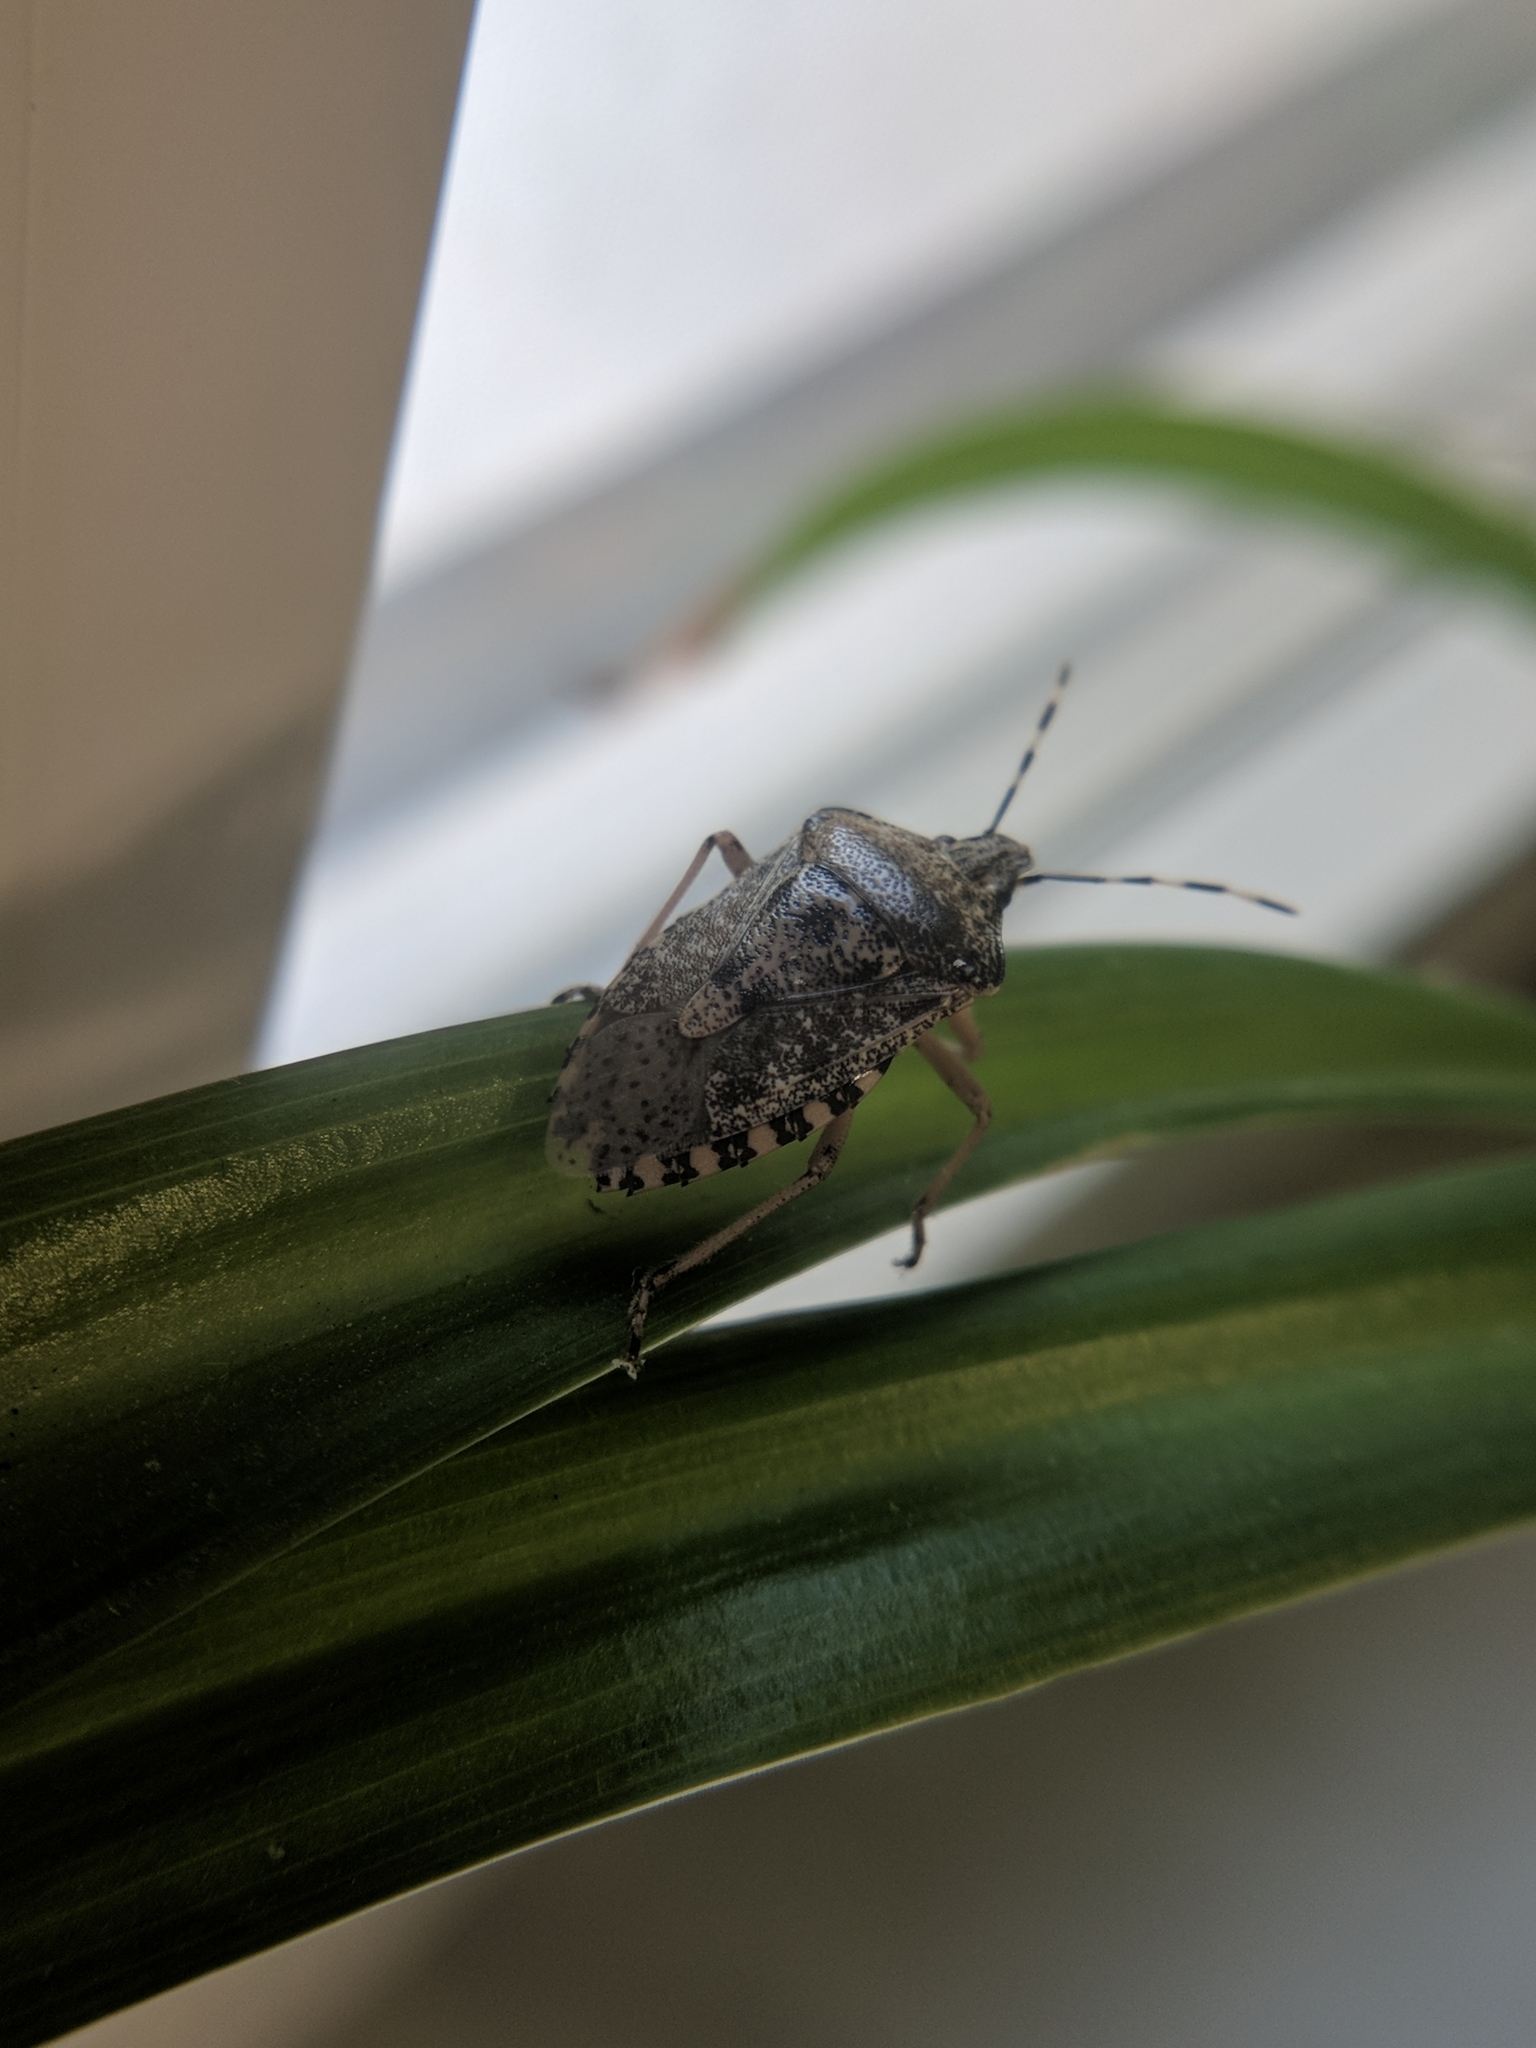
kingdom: Animalia
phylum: Arthropoda
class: Insecta
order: Hemiptera
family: Pentatomidae
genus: Rhaphigaster
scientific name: Rhaphigaster nebulosa
